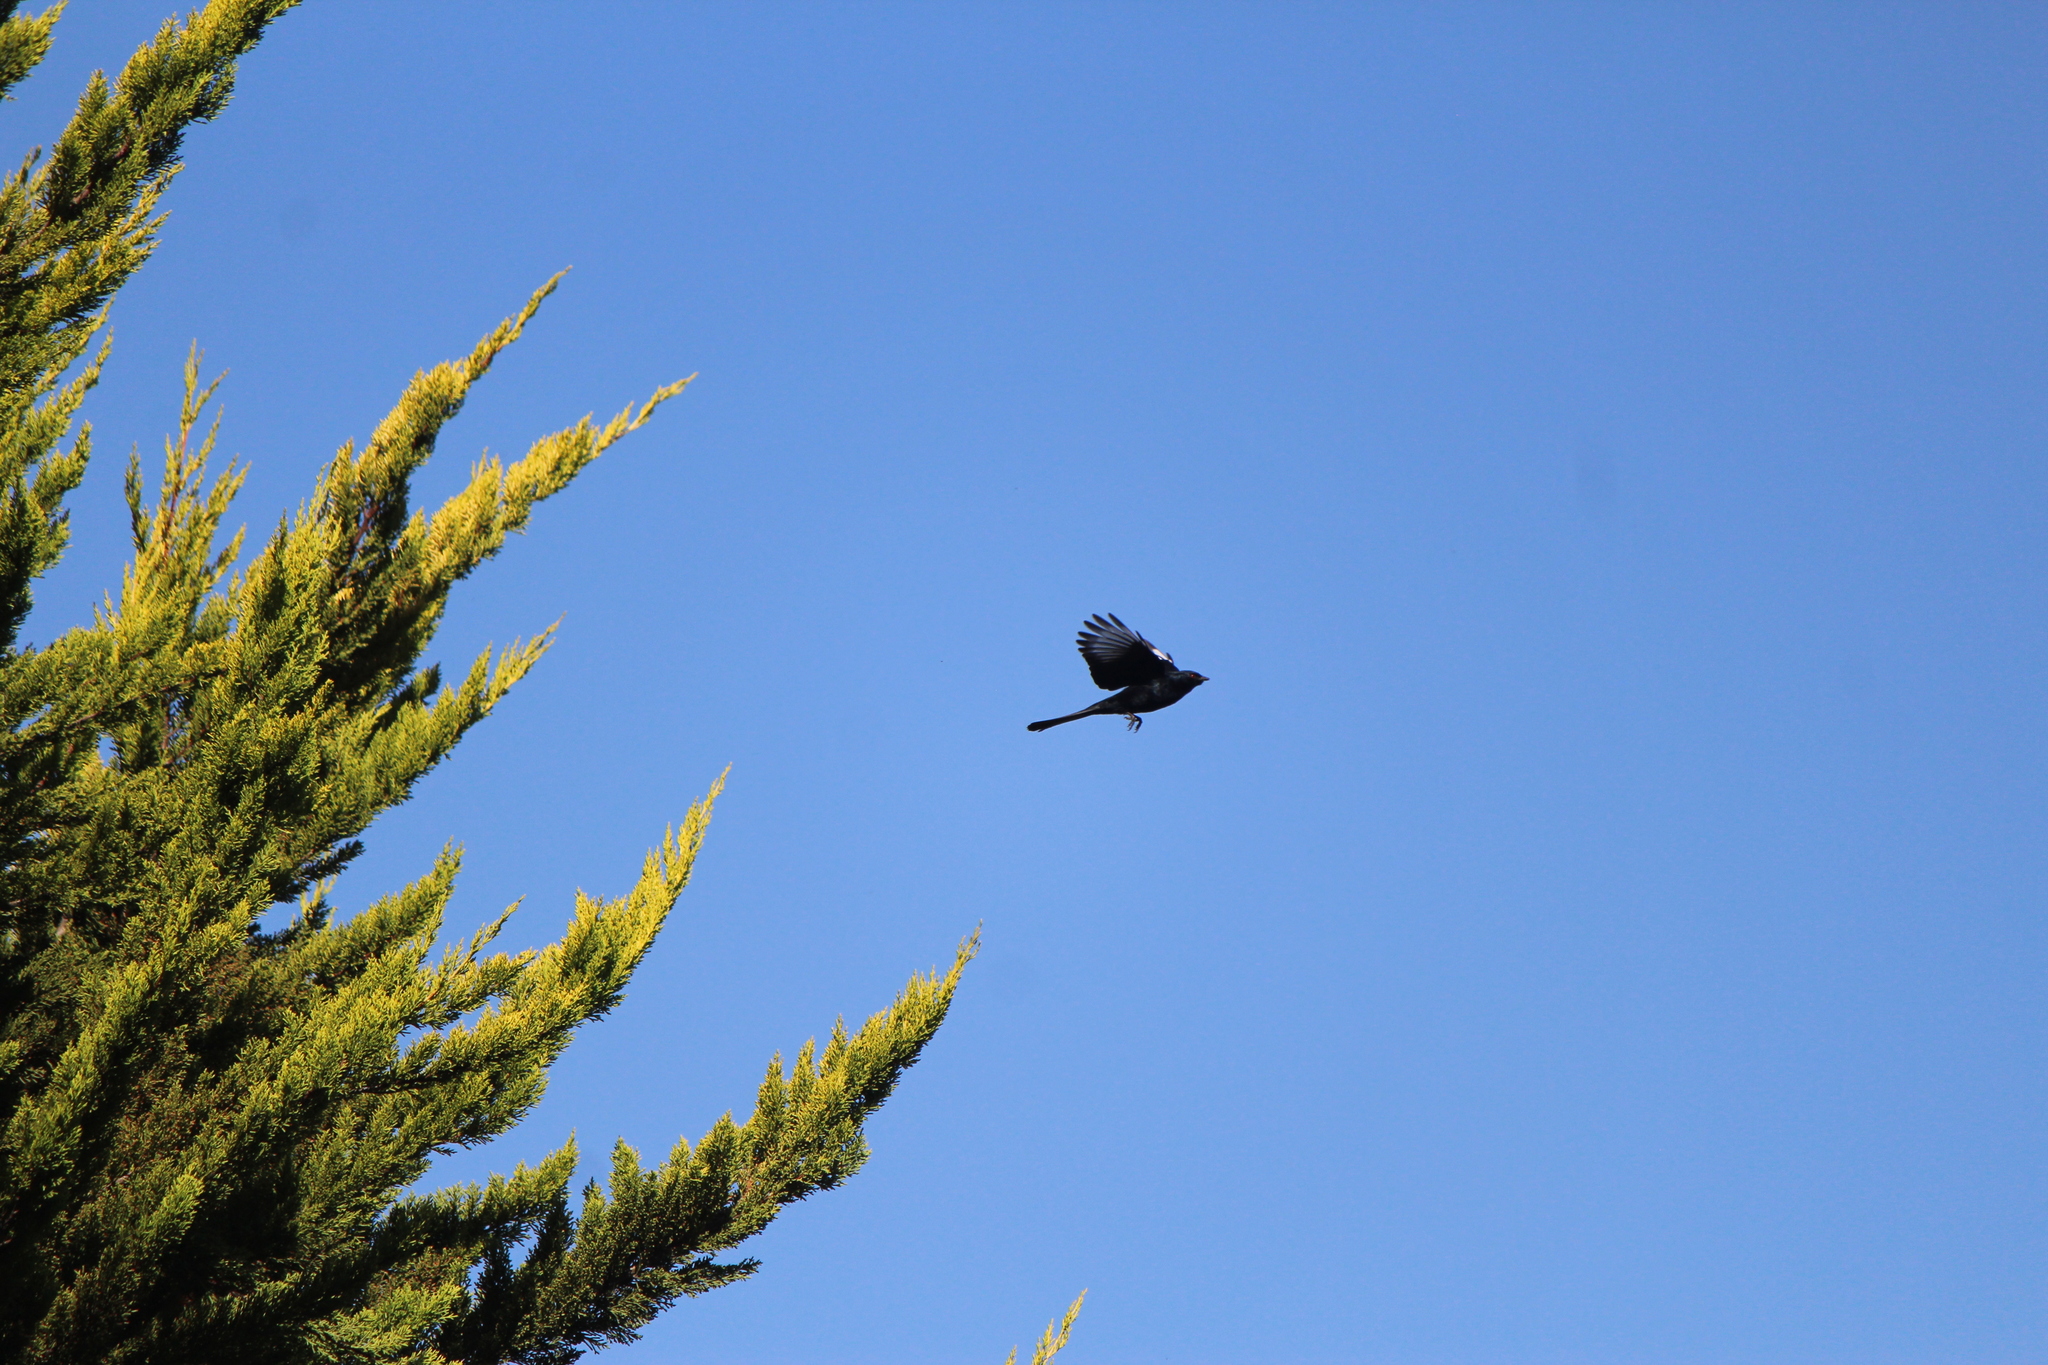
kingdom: Animalia
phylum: Chordata
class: Aves
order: Passeriformes
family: Ptilogonatidae
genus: Phainopepla
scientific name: Phainopepla nitens
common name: Phainopepla
